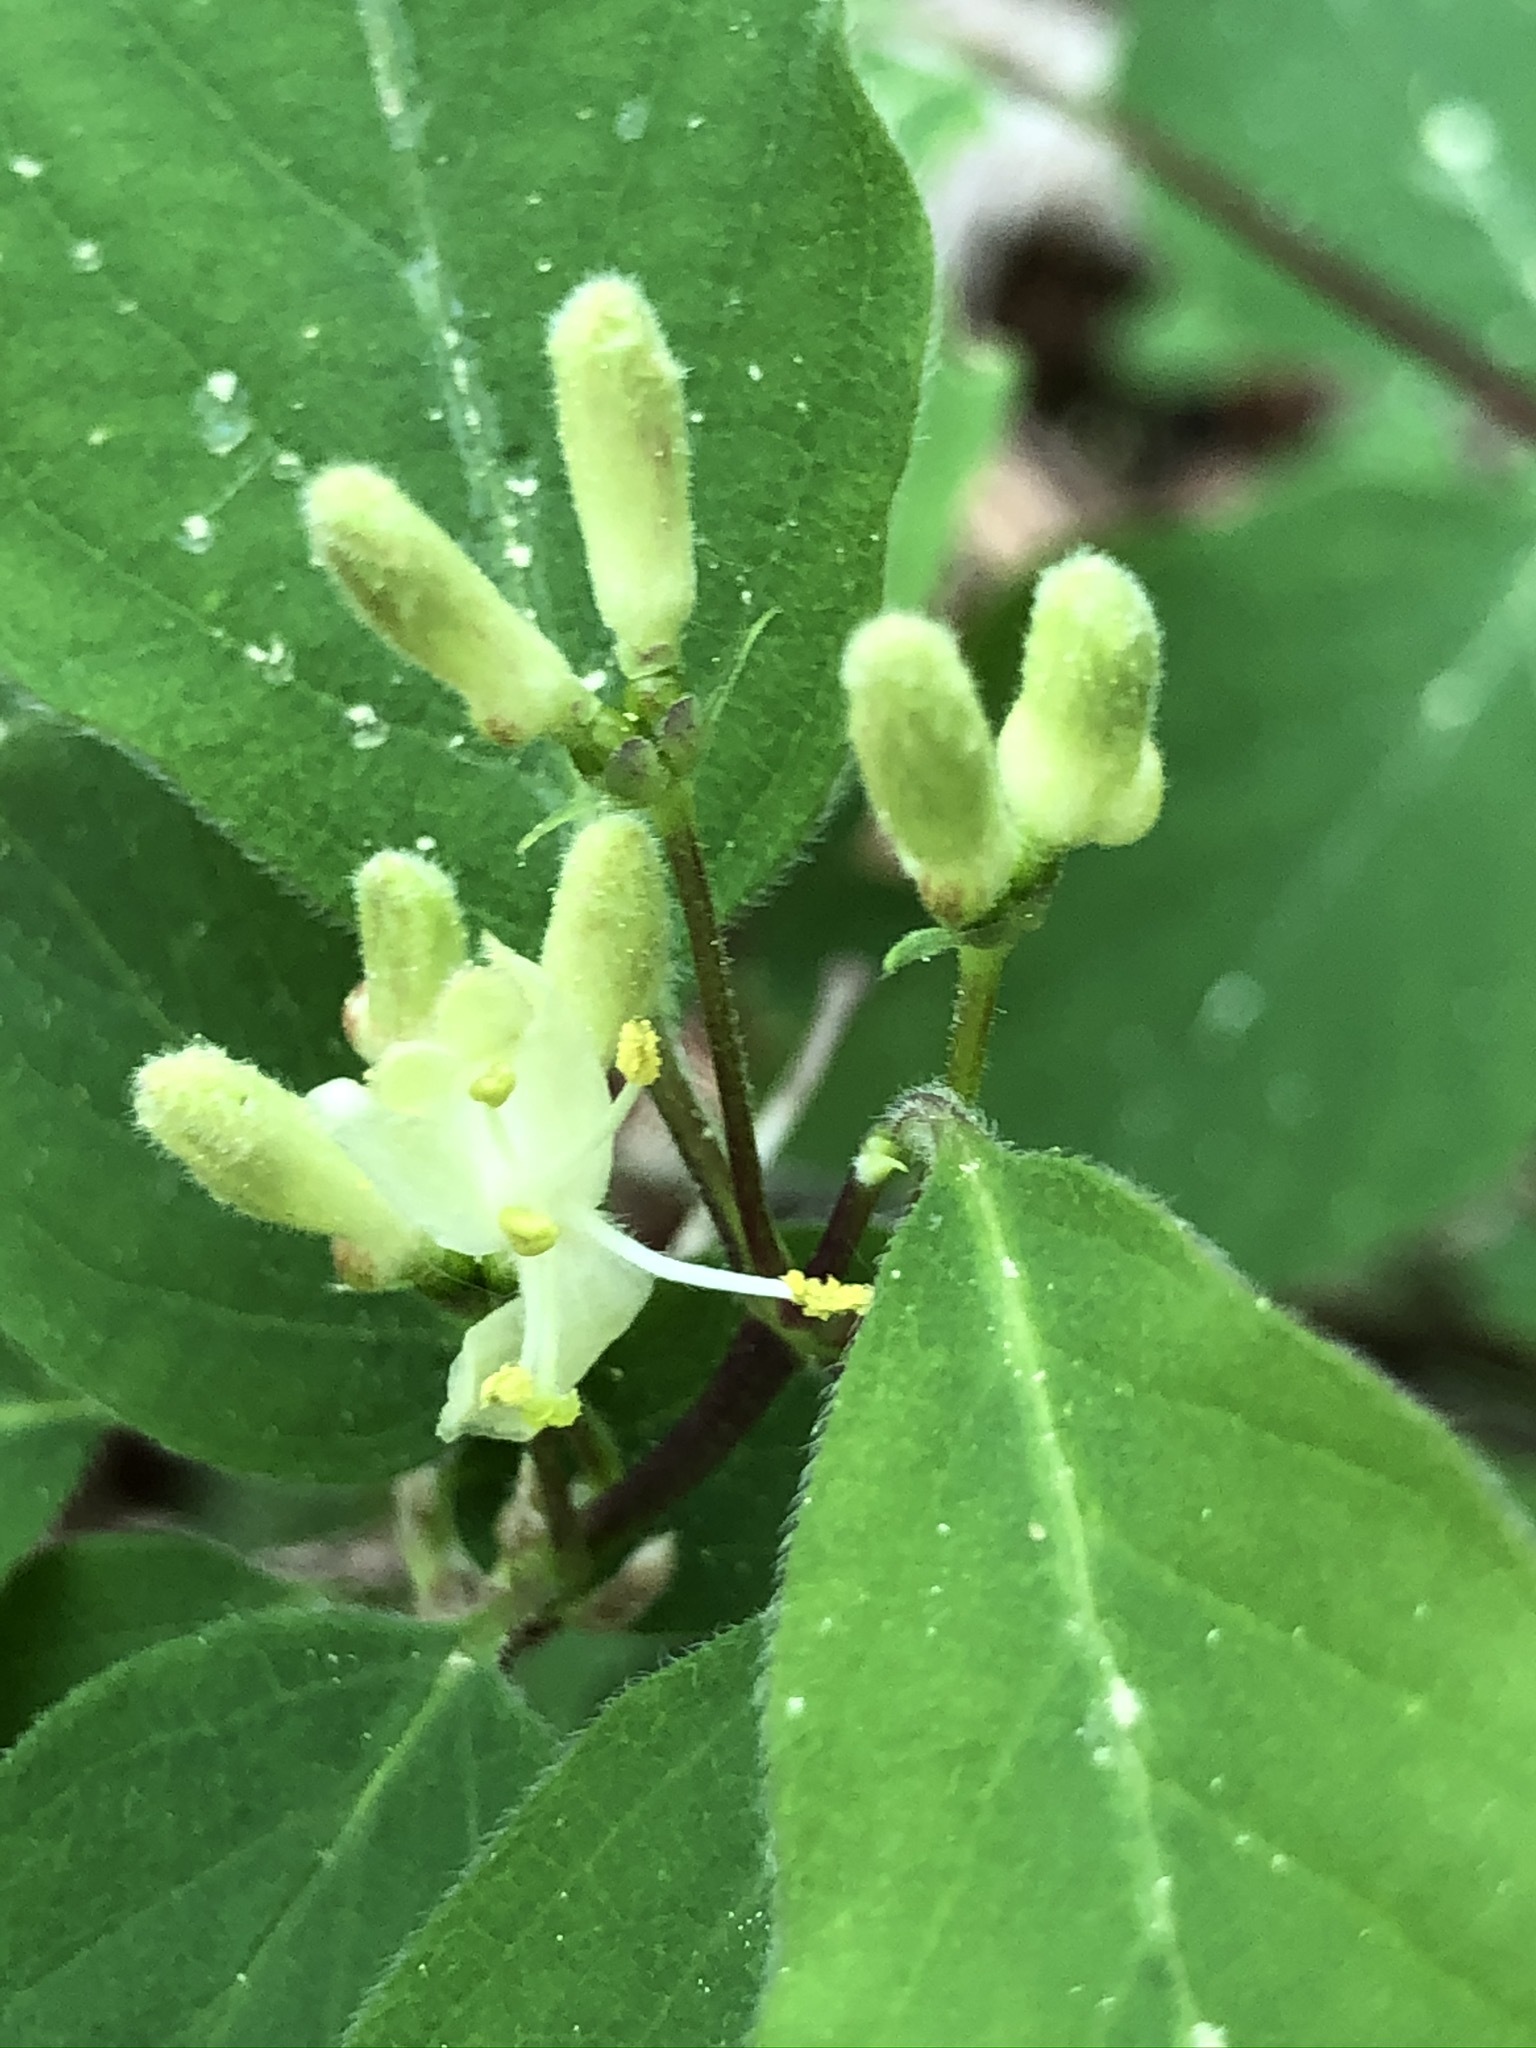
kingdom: Plantae
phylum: Tracheophyta
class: Magnoliopsida
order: Dipsacales
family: Caprifoliaceae
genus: Lonicera
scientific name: Lonicera xylosteum
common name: Fly honeysuckle
